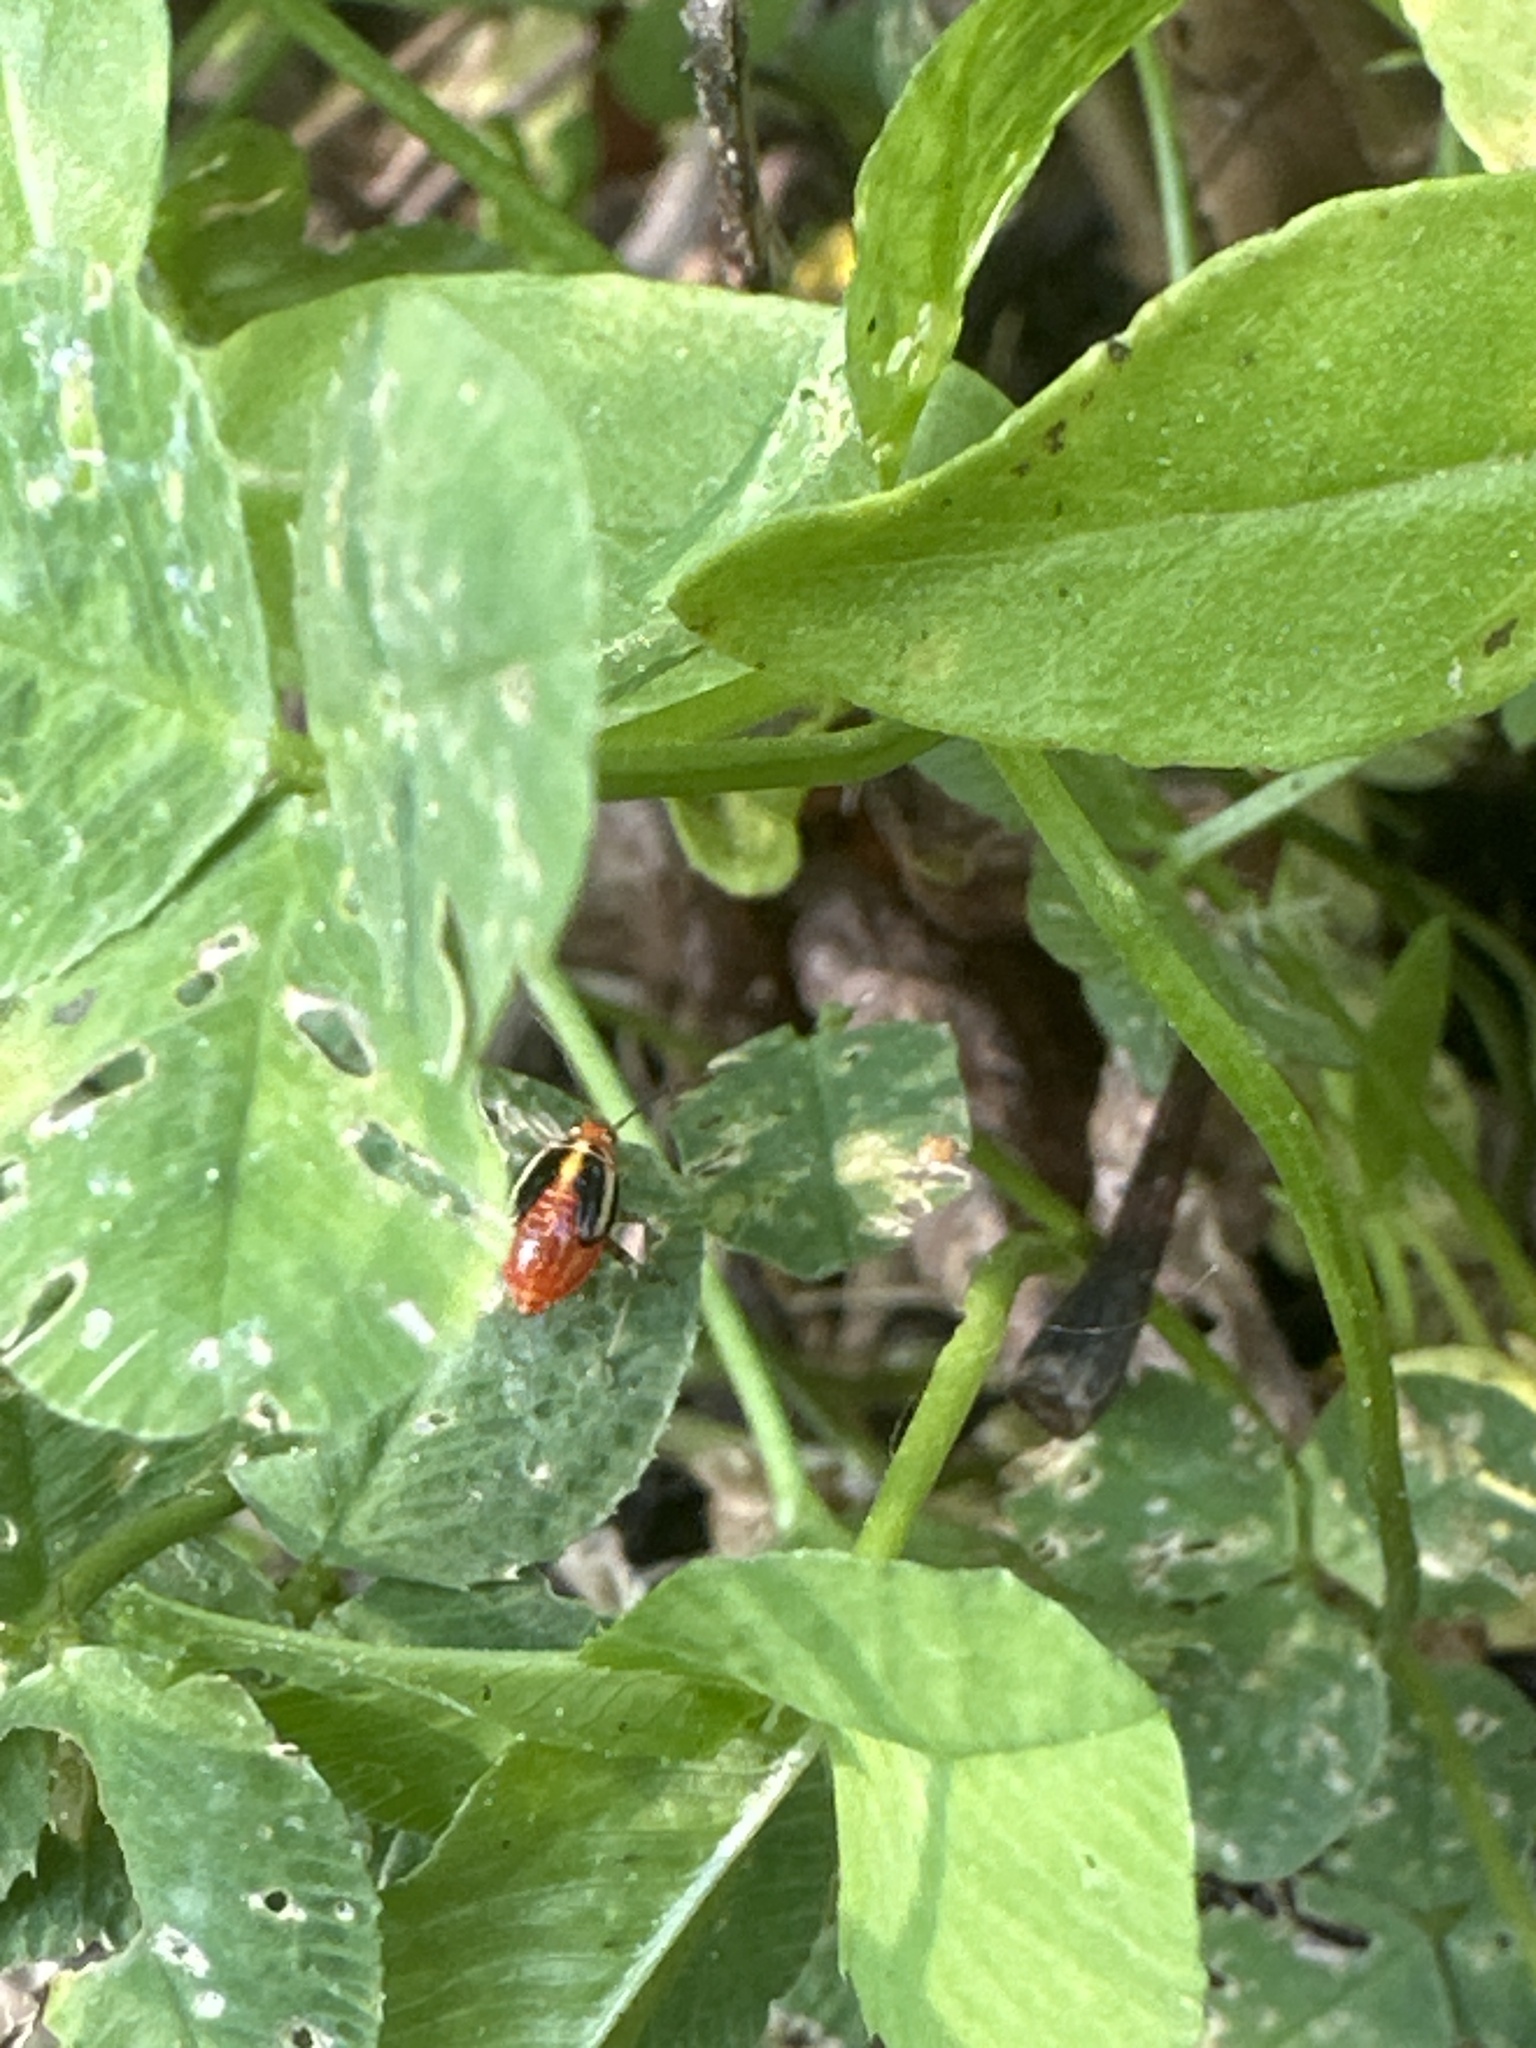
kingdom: Animalia
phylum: Arthropoda
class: Insecta
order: Hemiptera
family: Miridae
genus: Poecilocapsus
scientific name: Poecilocapsus lineatus
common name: Four-lined plant bug
